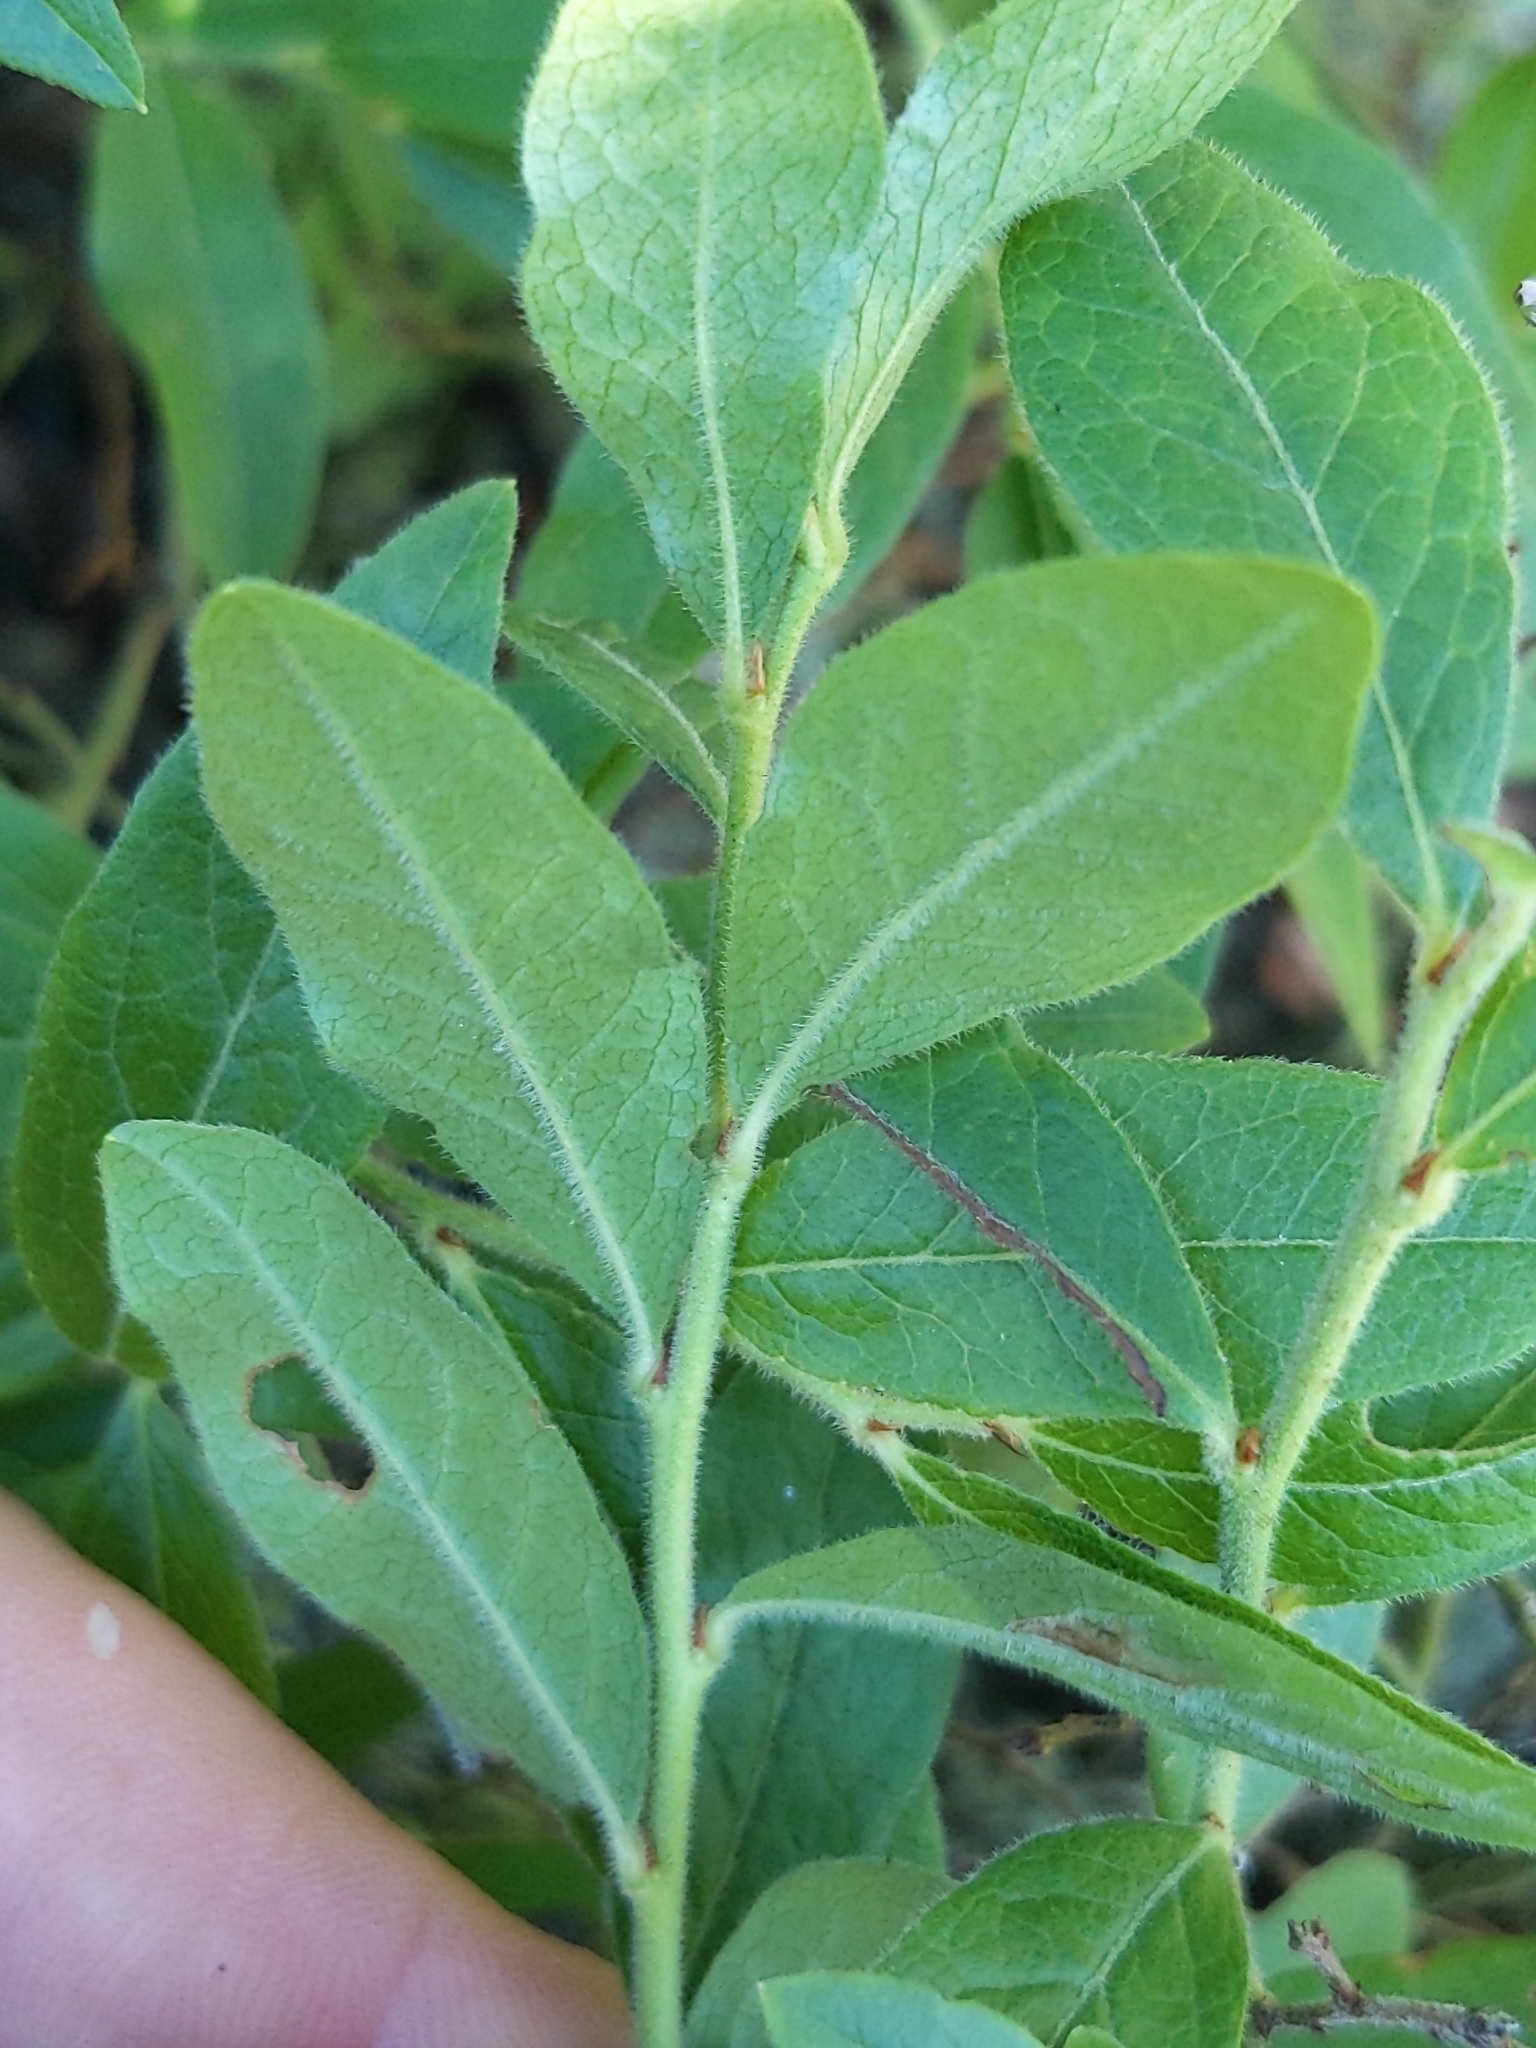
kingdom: Plantae
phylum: Tracheophyta
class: Magnoliopsida
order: Ericales
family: Ericaceae
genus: Vaccinium
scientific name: Vaccinium myrtilloides
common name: Canada blueberry
